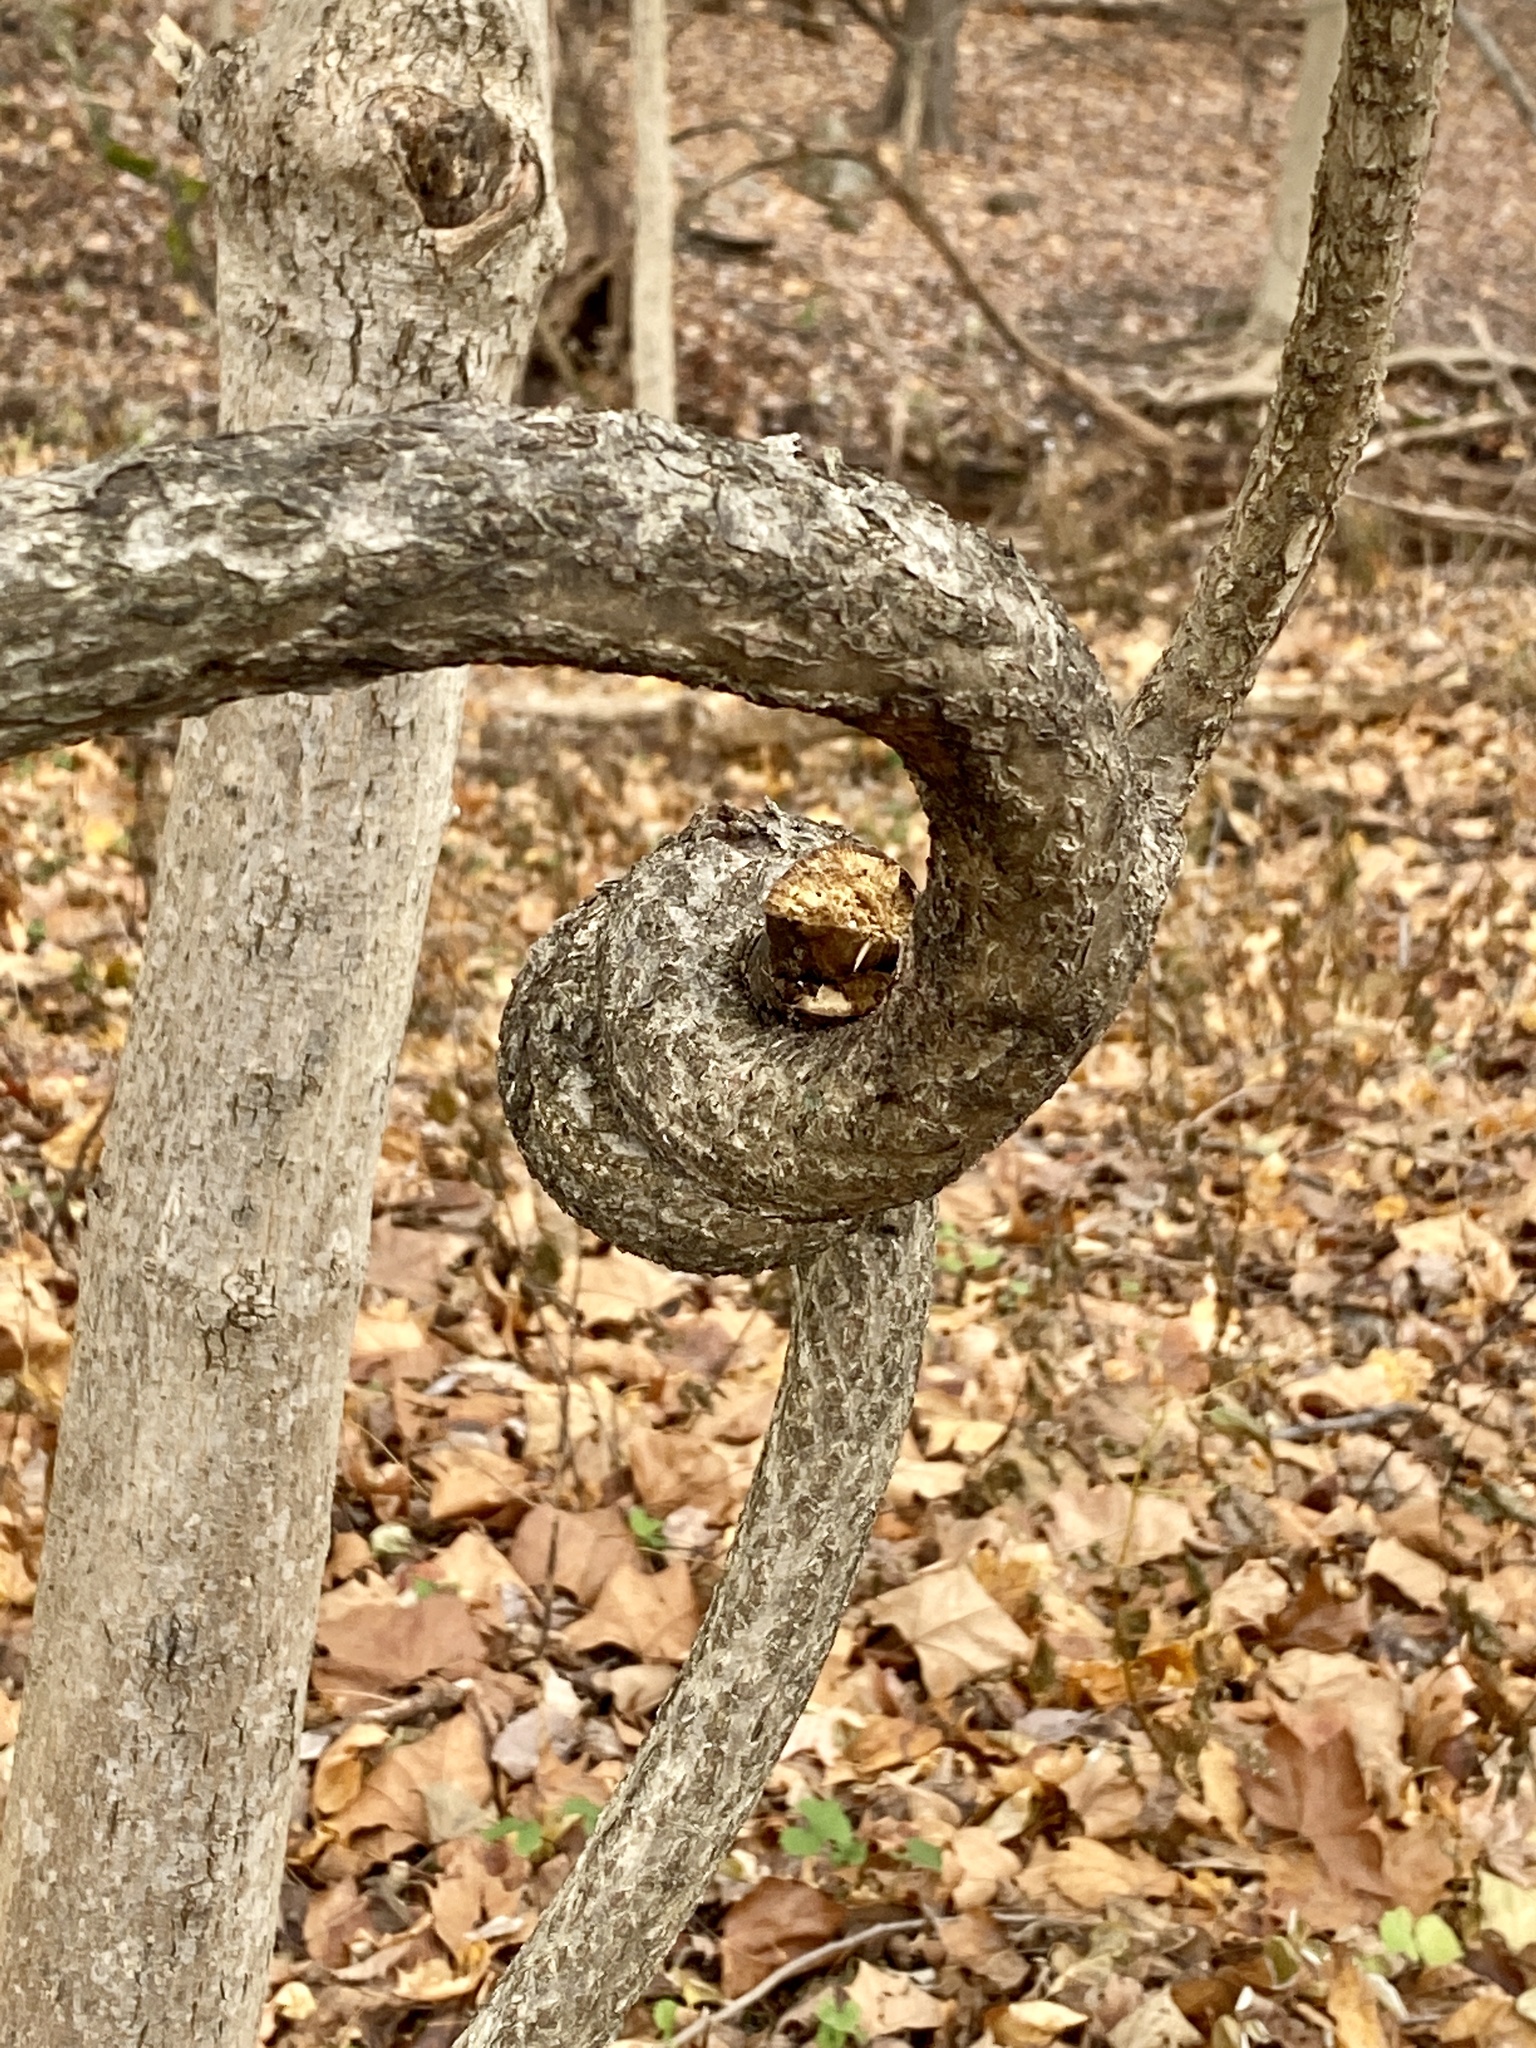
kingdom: Plantae
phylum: Tracheophyta
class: Magnoliopsida
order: Celastrales
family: Celastraceae
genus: Celastrus
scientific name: Celastrus orbiculatus
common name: Oriental bittersweet
